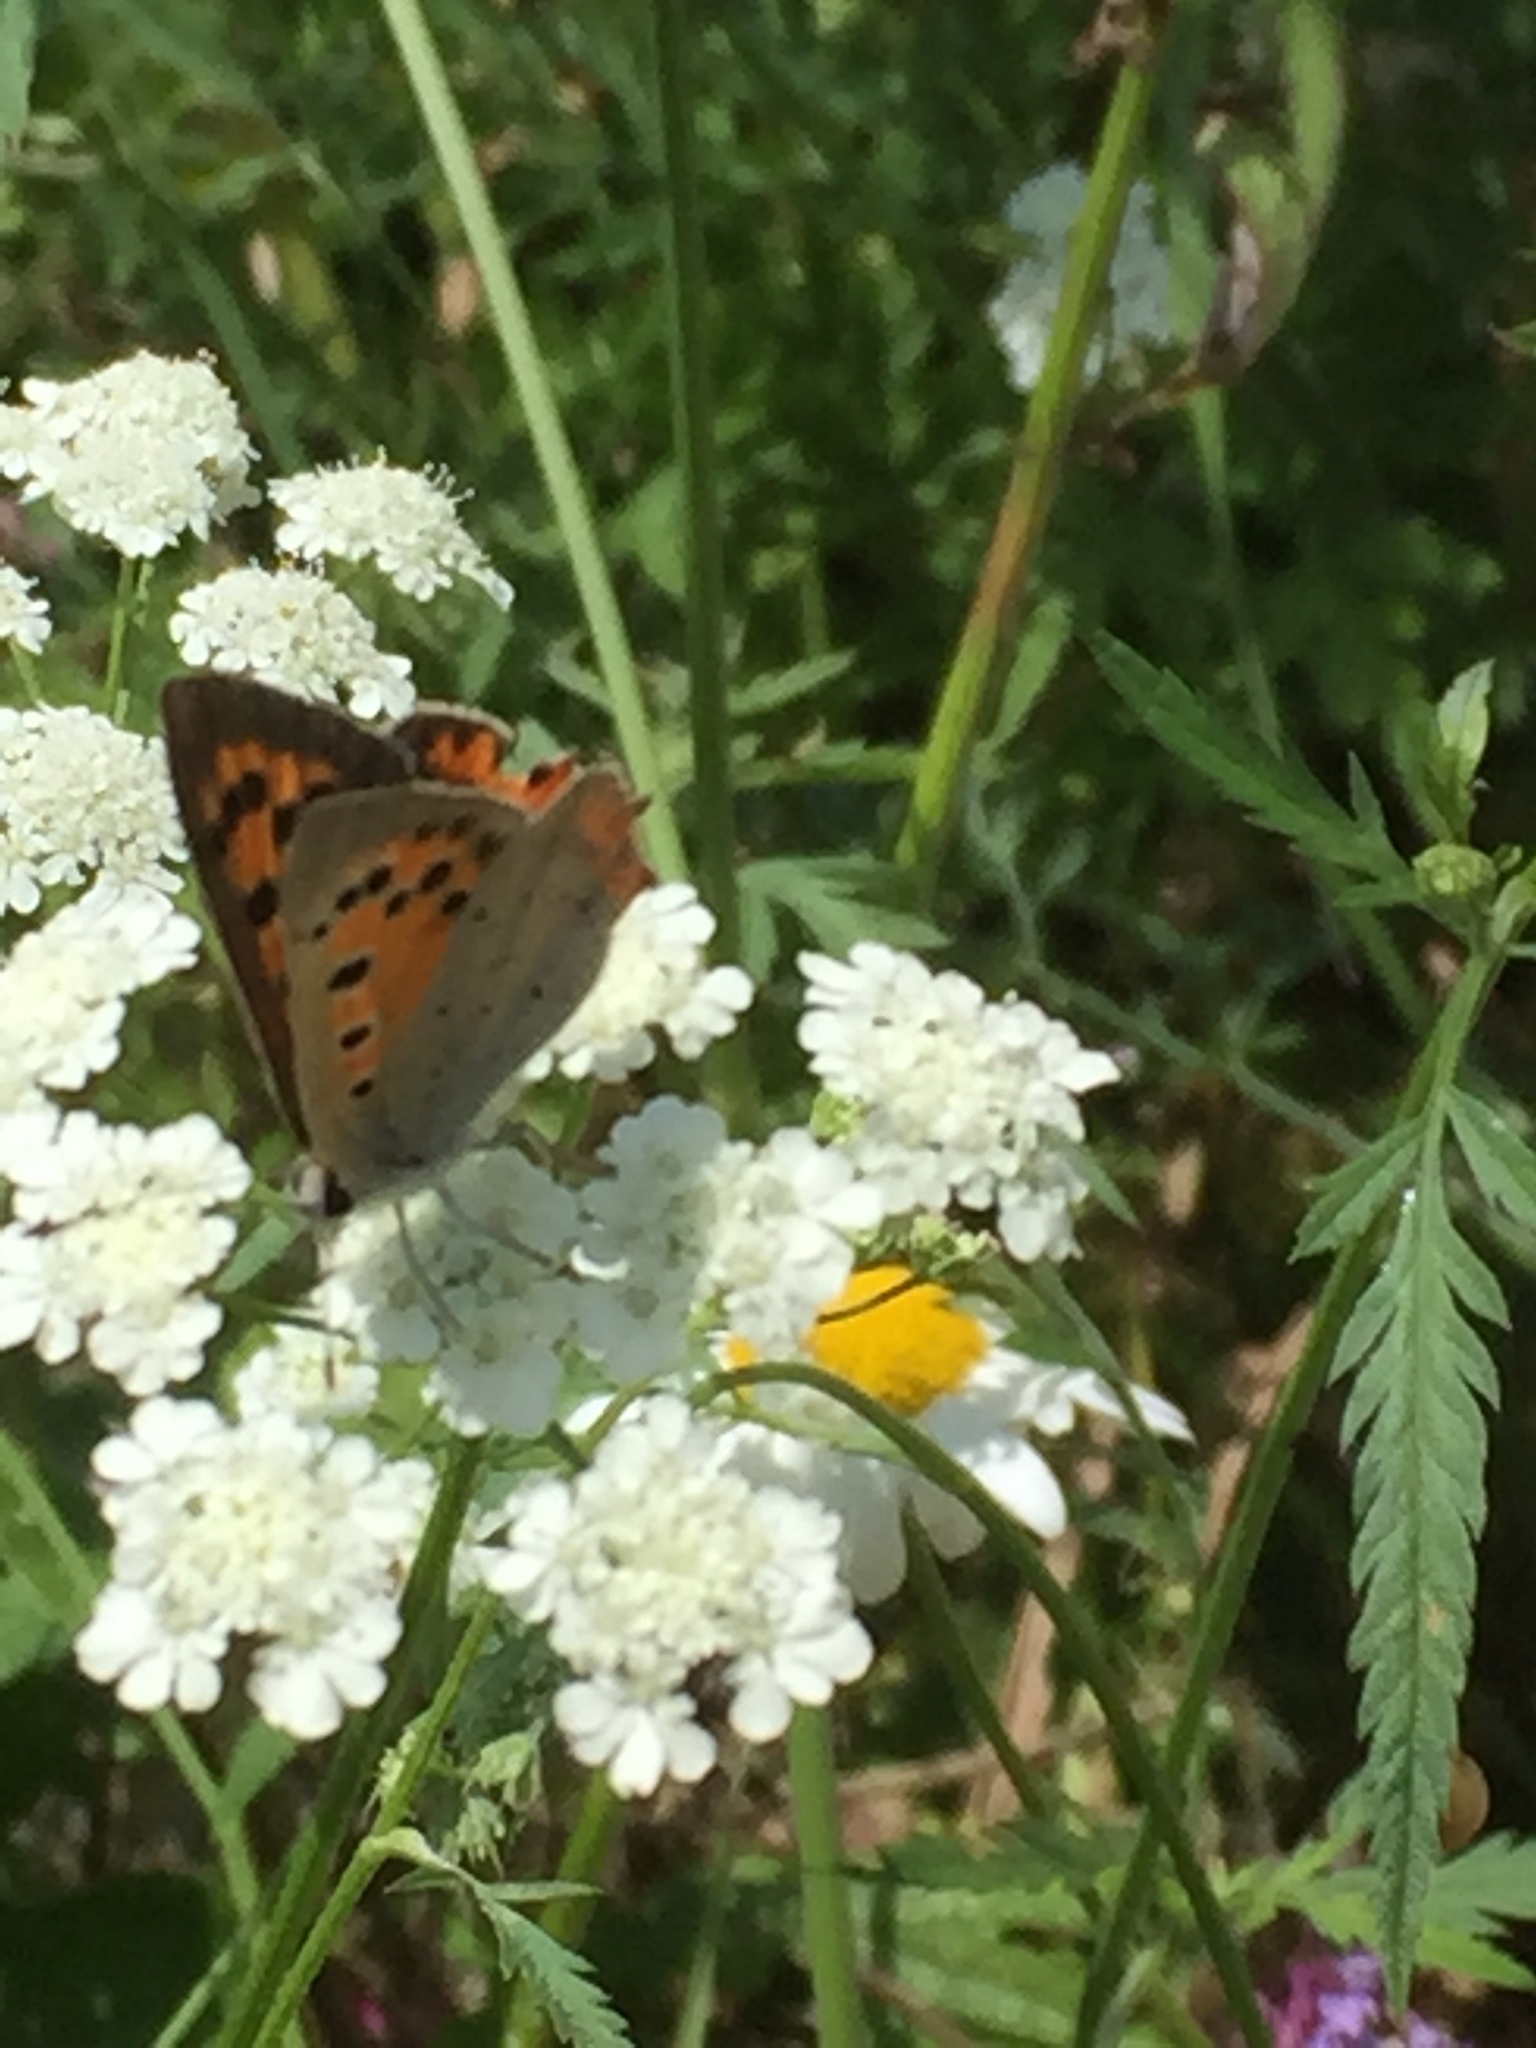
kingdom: Animalia
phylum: Arthropoda
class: Insecta
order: Lepidoptera
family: Lycaenidae
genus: Lycaena
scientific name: Lycaena phlaeas
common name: Small copper
